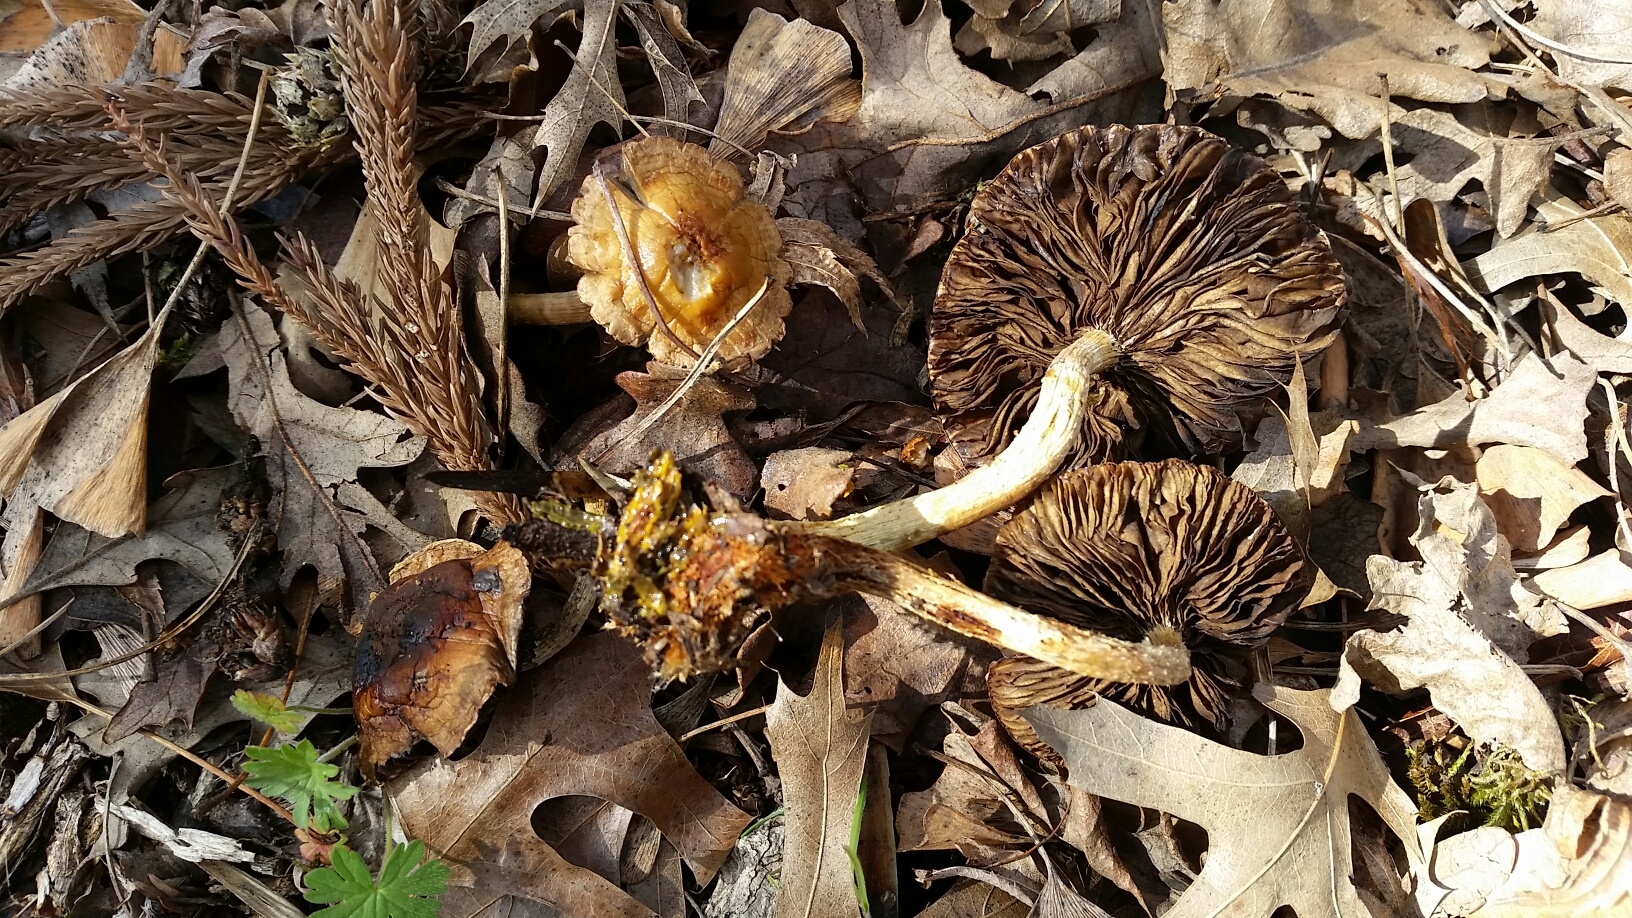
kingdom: Fungi
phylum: Basidiomycota
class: Agaricomycetes
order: Agaricales
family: Strophariaceae
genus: Leratiomyces
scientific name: Leratiomyces percevalii
